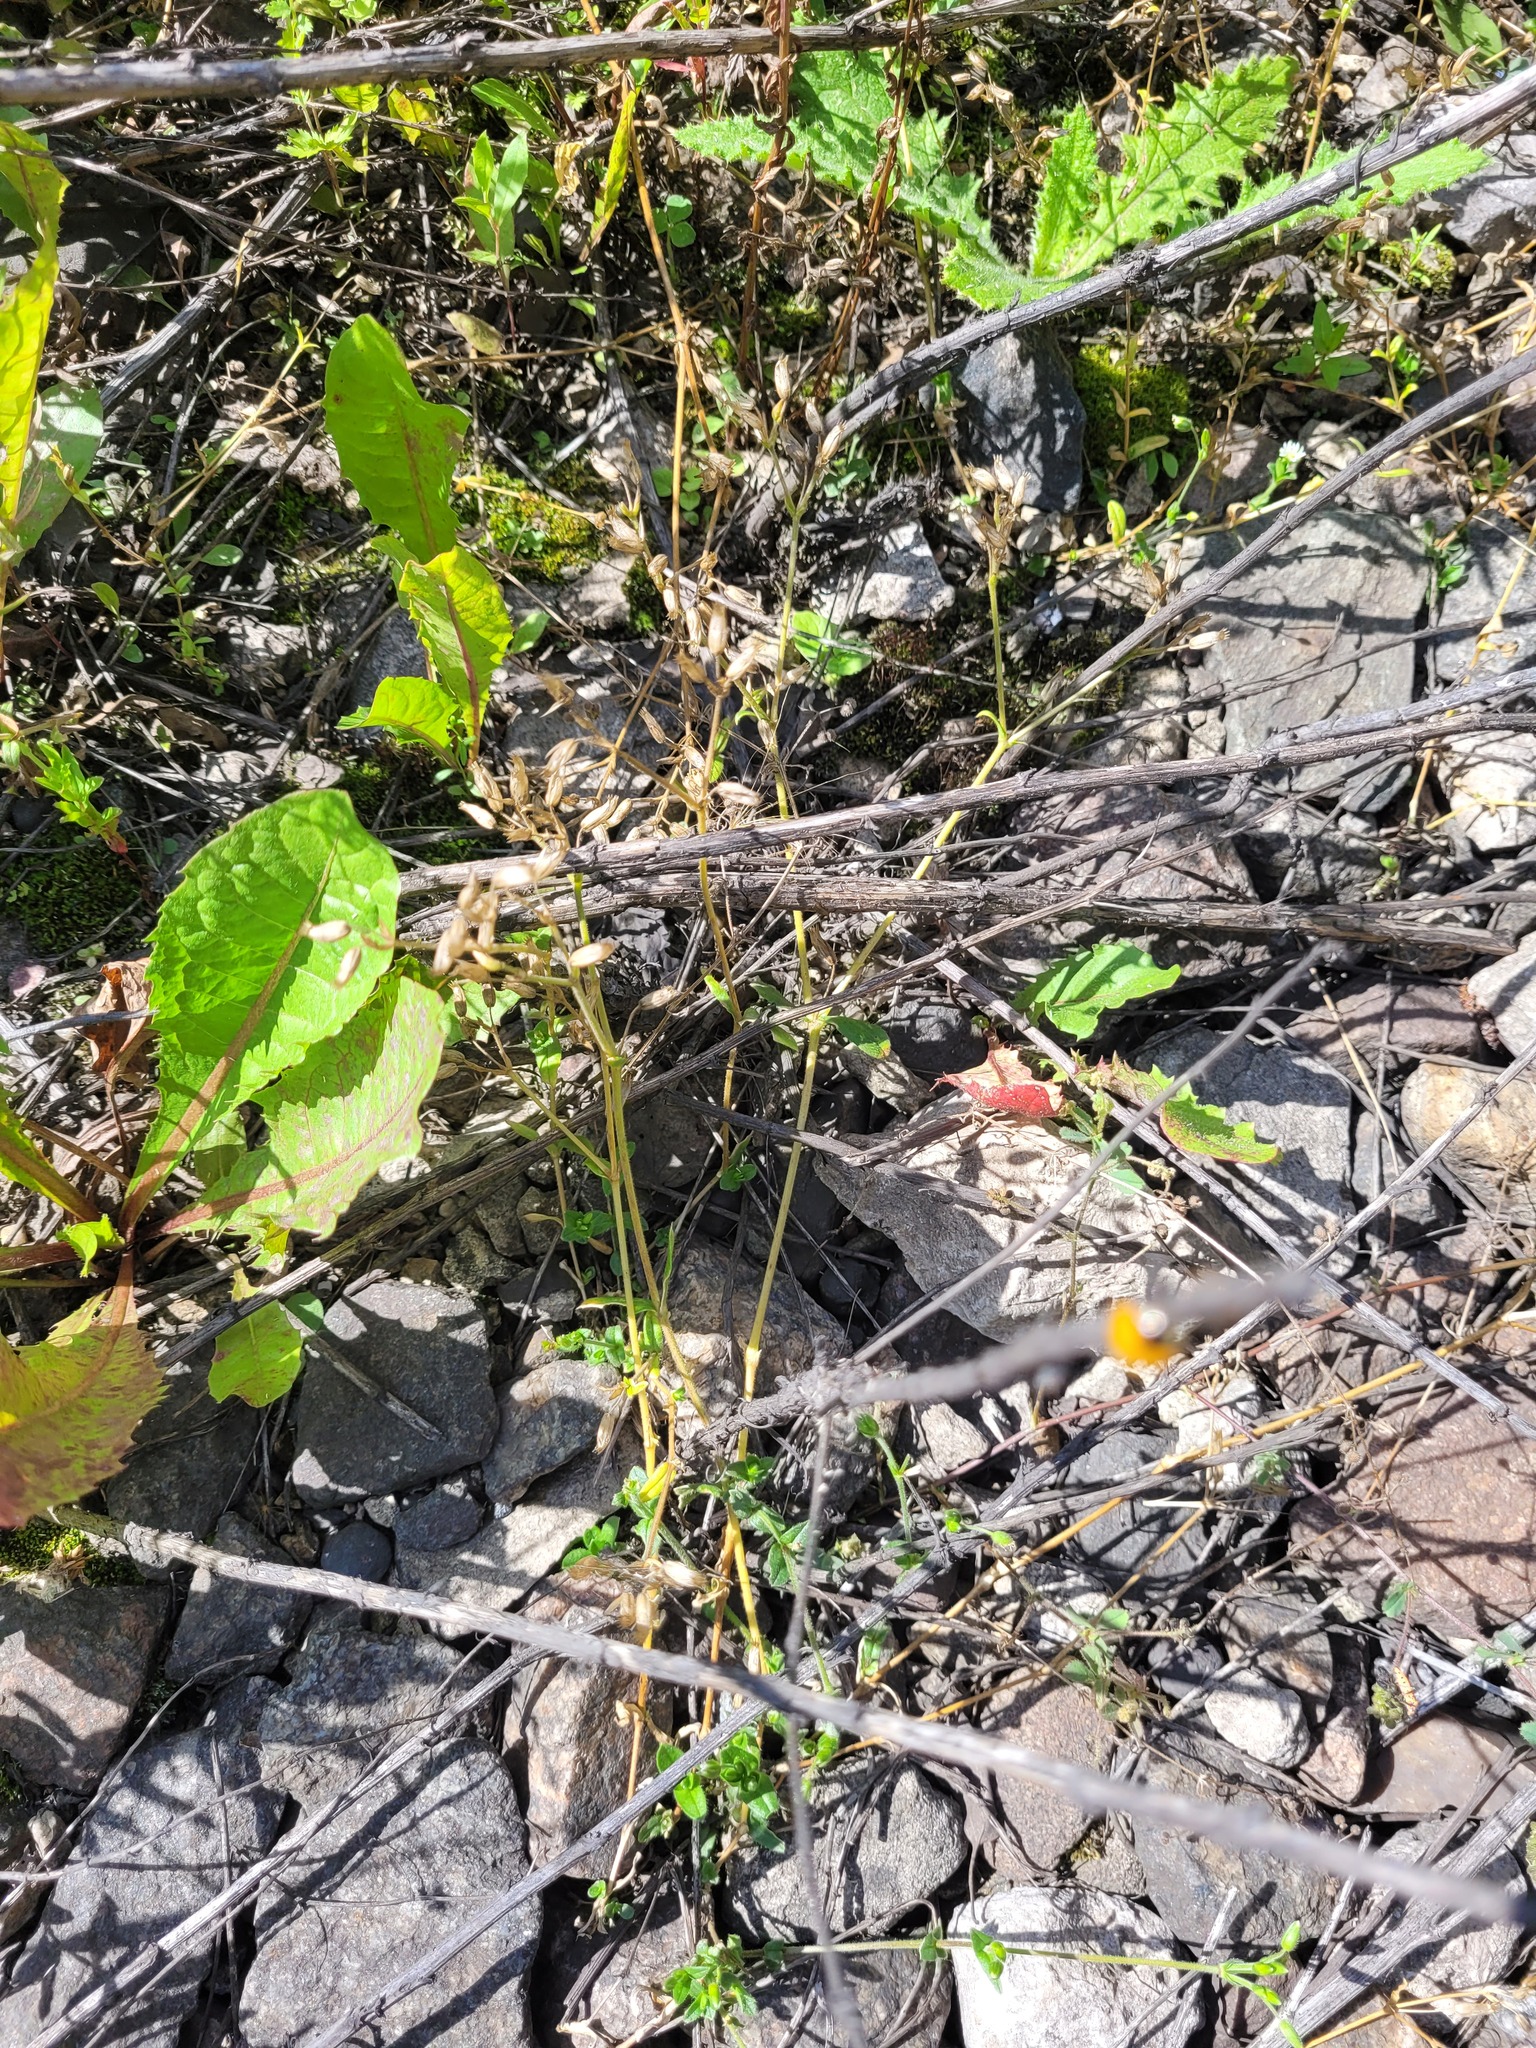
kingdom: Plantae
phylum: Tracheophyta
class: Magnoliopsida
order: Caryophyllales
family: Caryophyllaceae
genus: Cerastium
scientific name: Cerastium holosteoides
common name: Big chickweed
